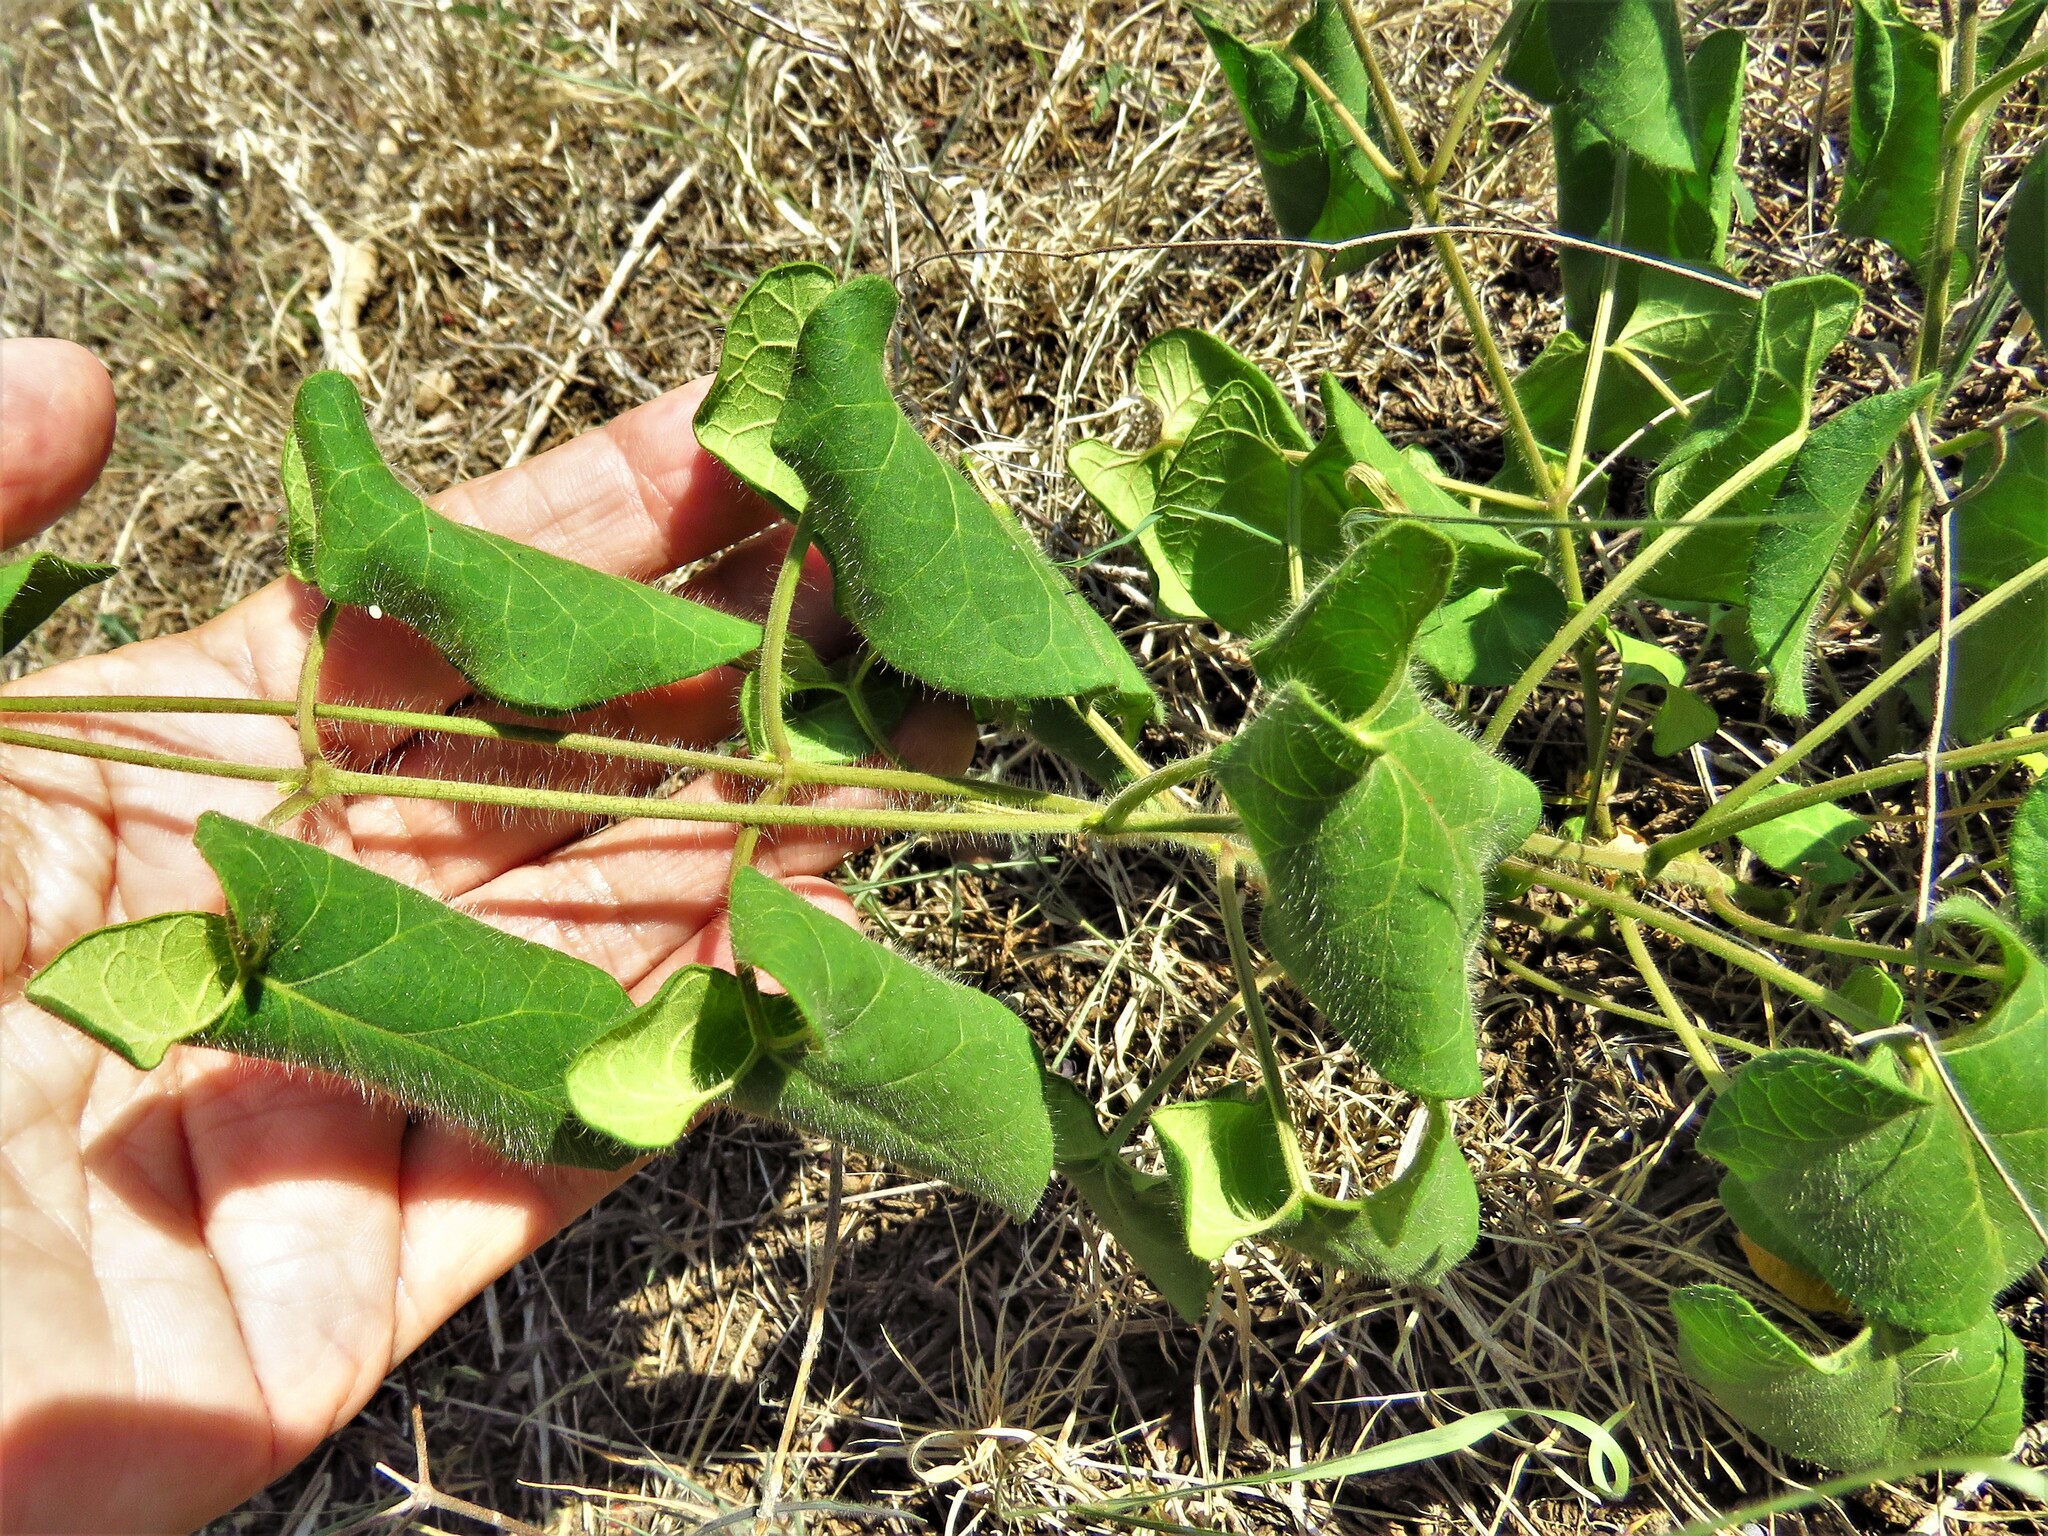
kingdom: Plantae
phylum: Tracheophyta
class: Magnoliopsida
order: Gentianales
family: Apocynaceae
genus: Dictyanthus
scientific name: Dictyanthus reticulatus
